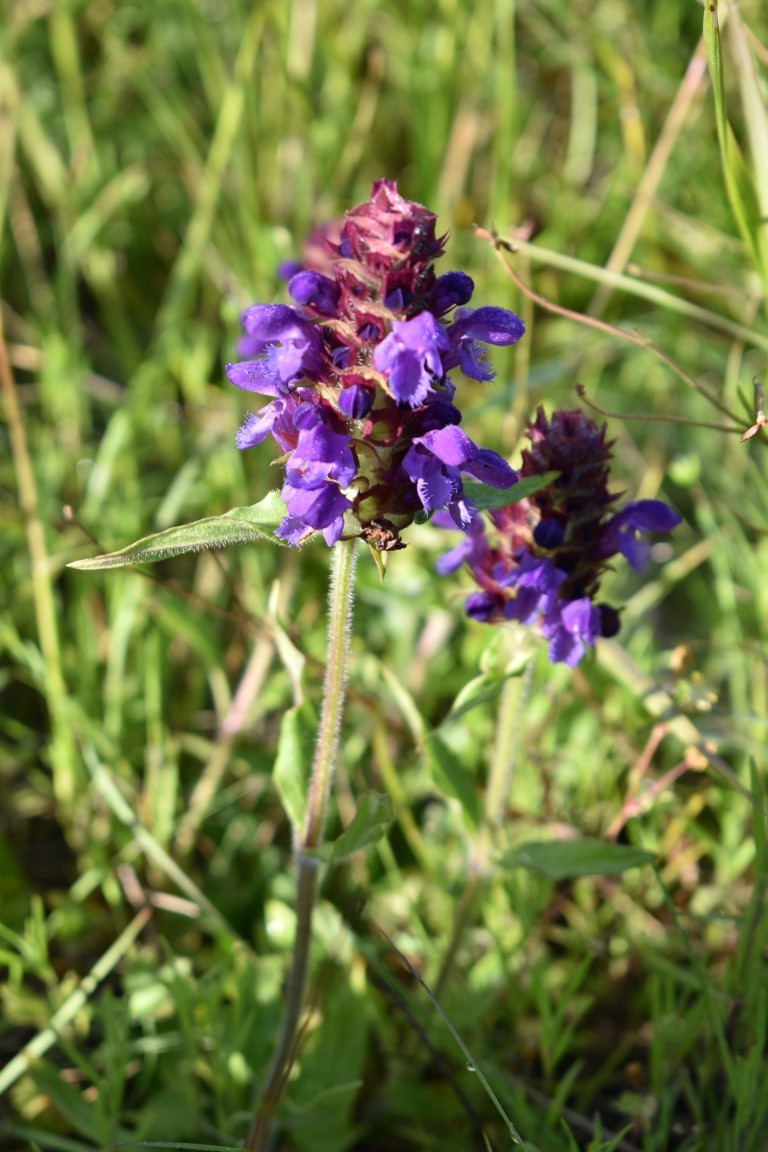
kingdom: Plantae
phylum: Tracheophyta
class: Magnoliopsida
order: Lamiales
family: Lamiaceae
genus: Prunella
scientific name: Prunella vulgaris
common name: Heal-all
